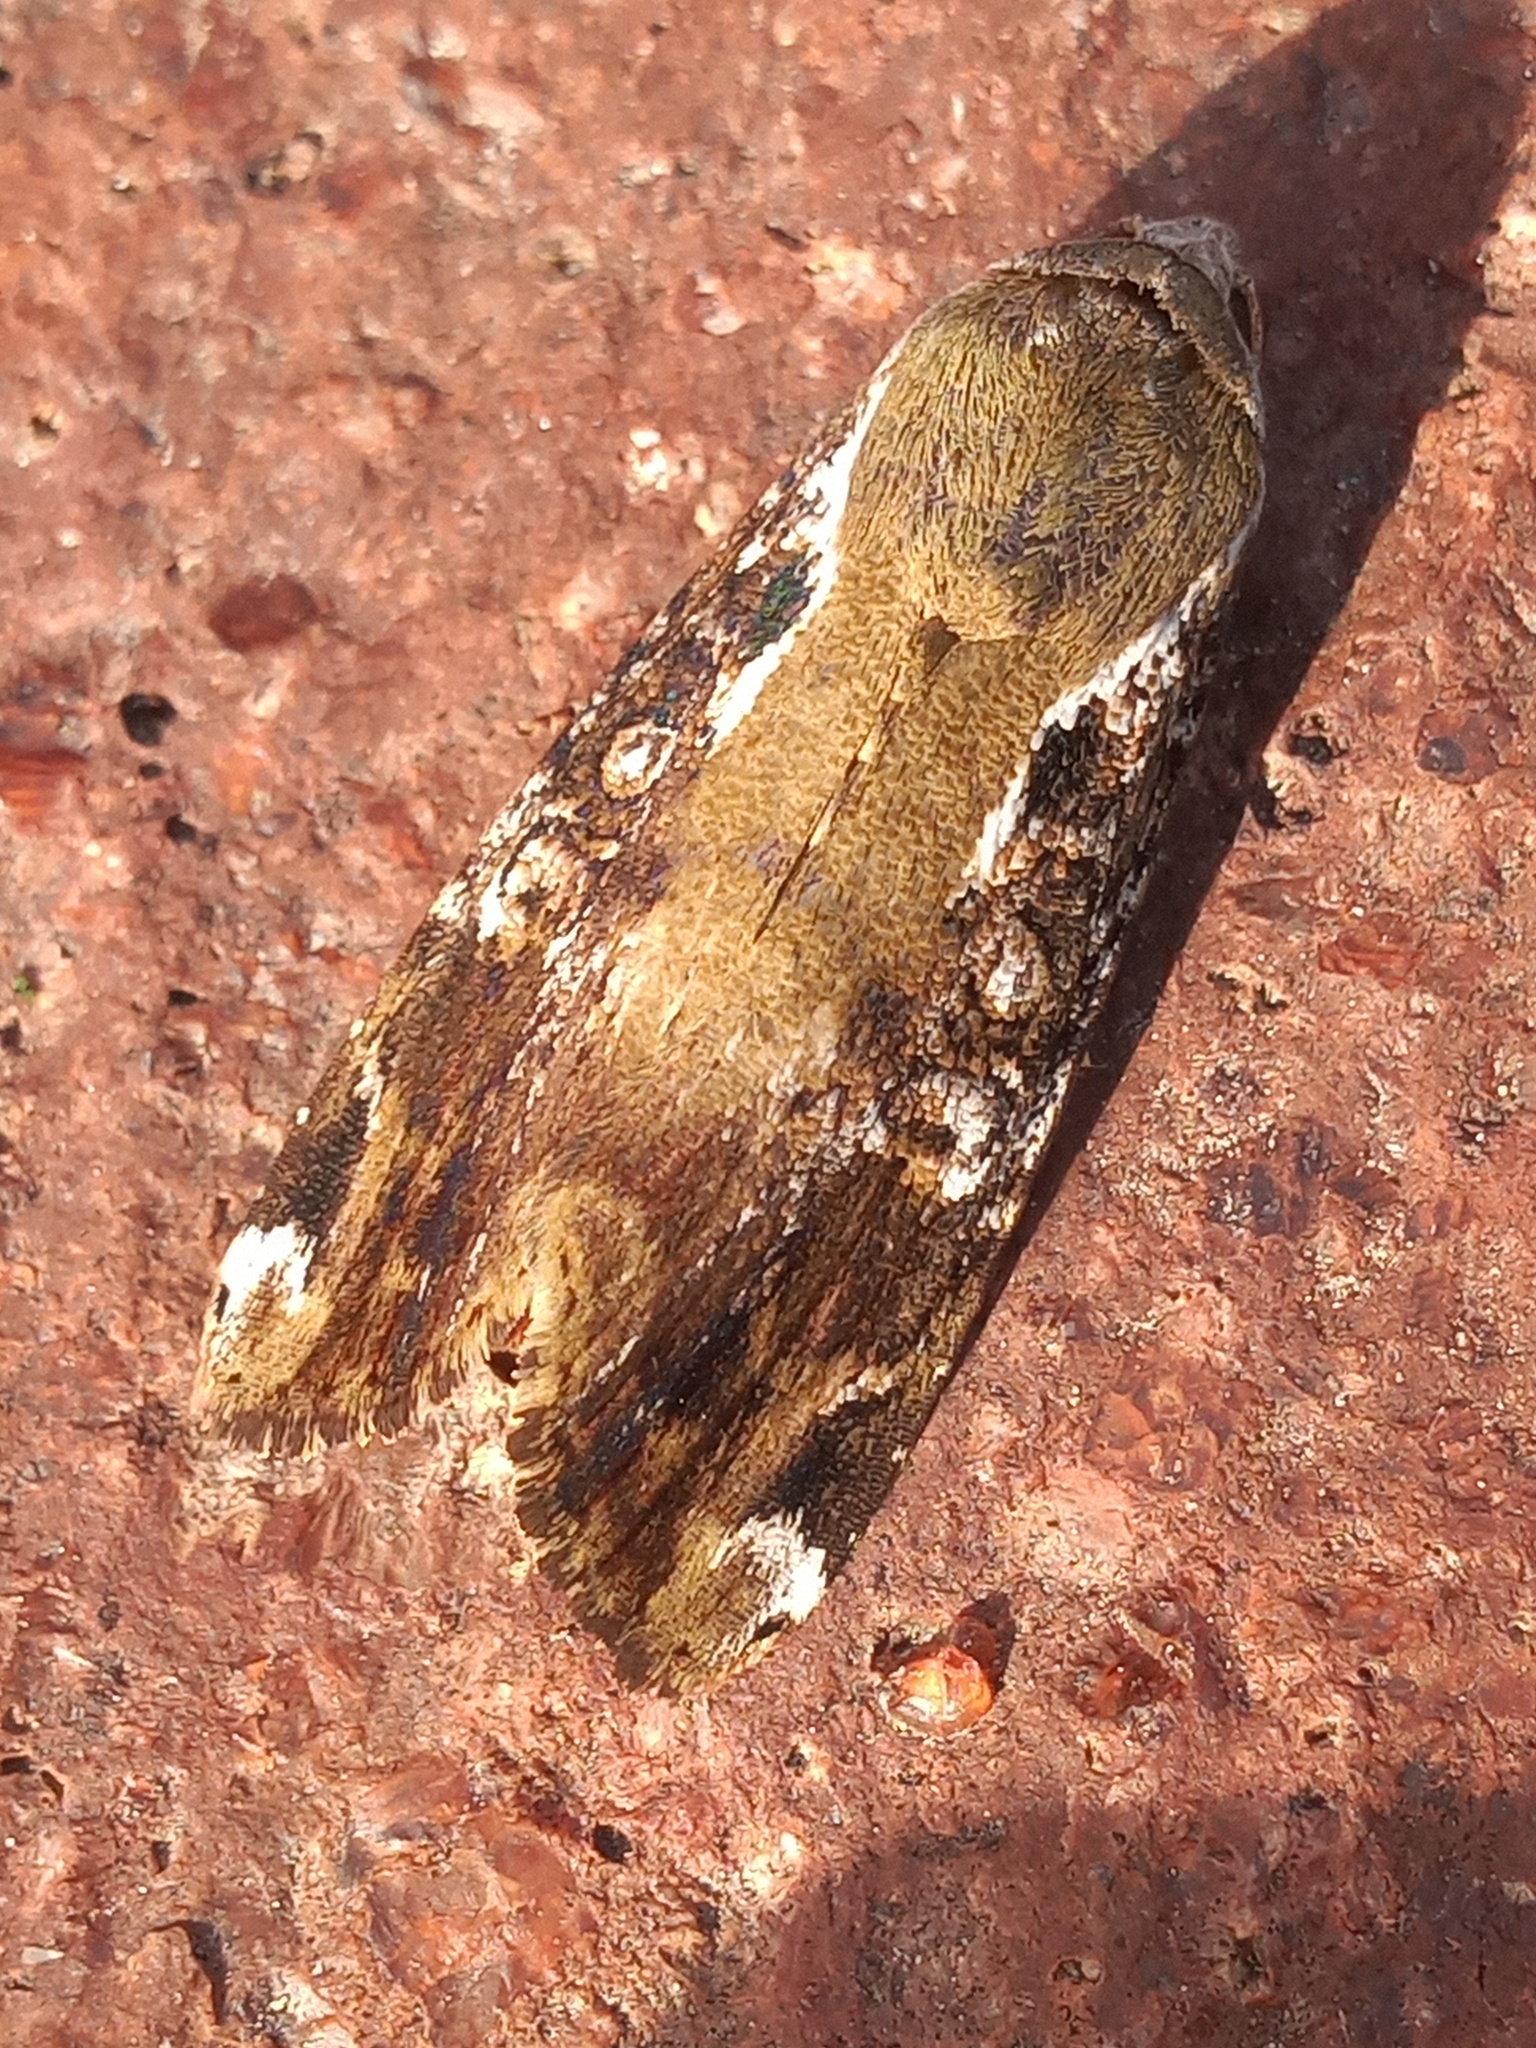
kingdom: Animalia
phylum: Arthropoda
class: Insecta
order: Lepidoptera
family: Noctuidae
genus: Magusa
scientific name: Magusa divaricata
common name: Orb narrow-winged moth
